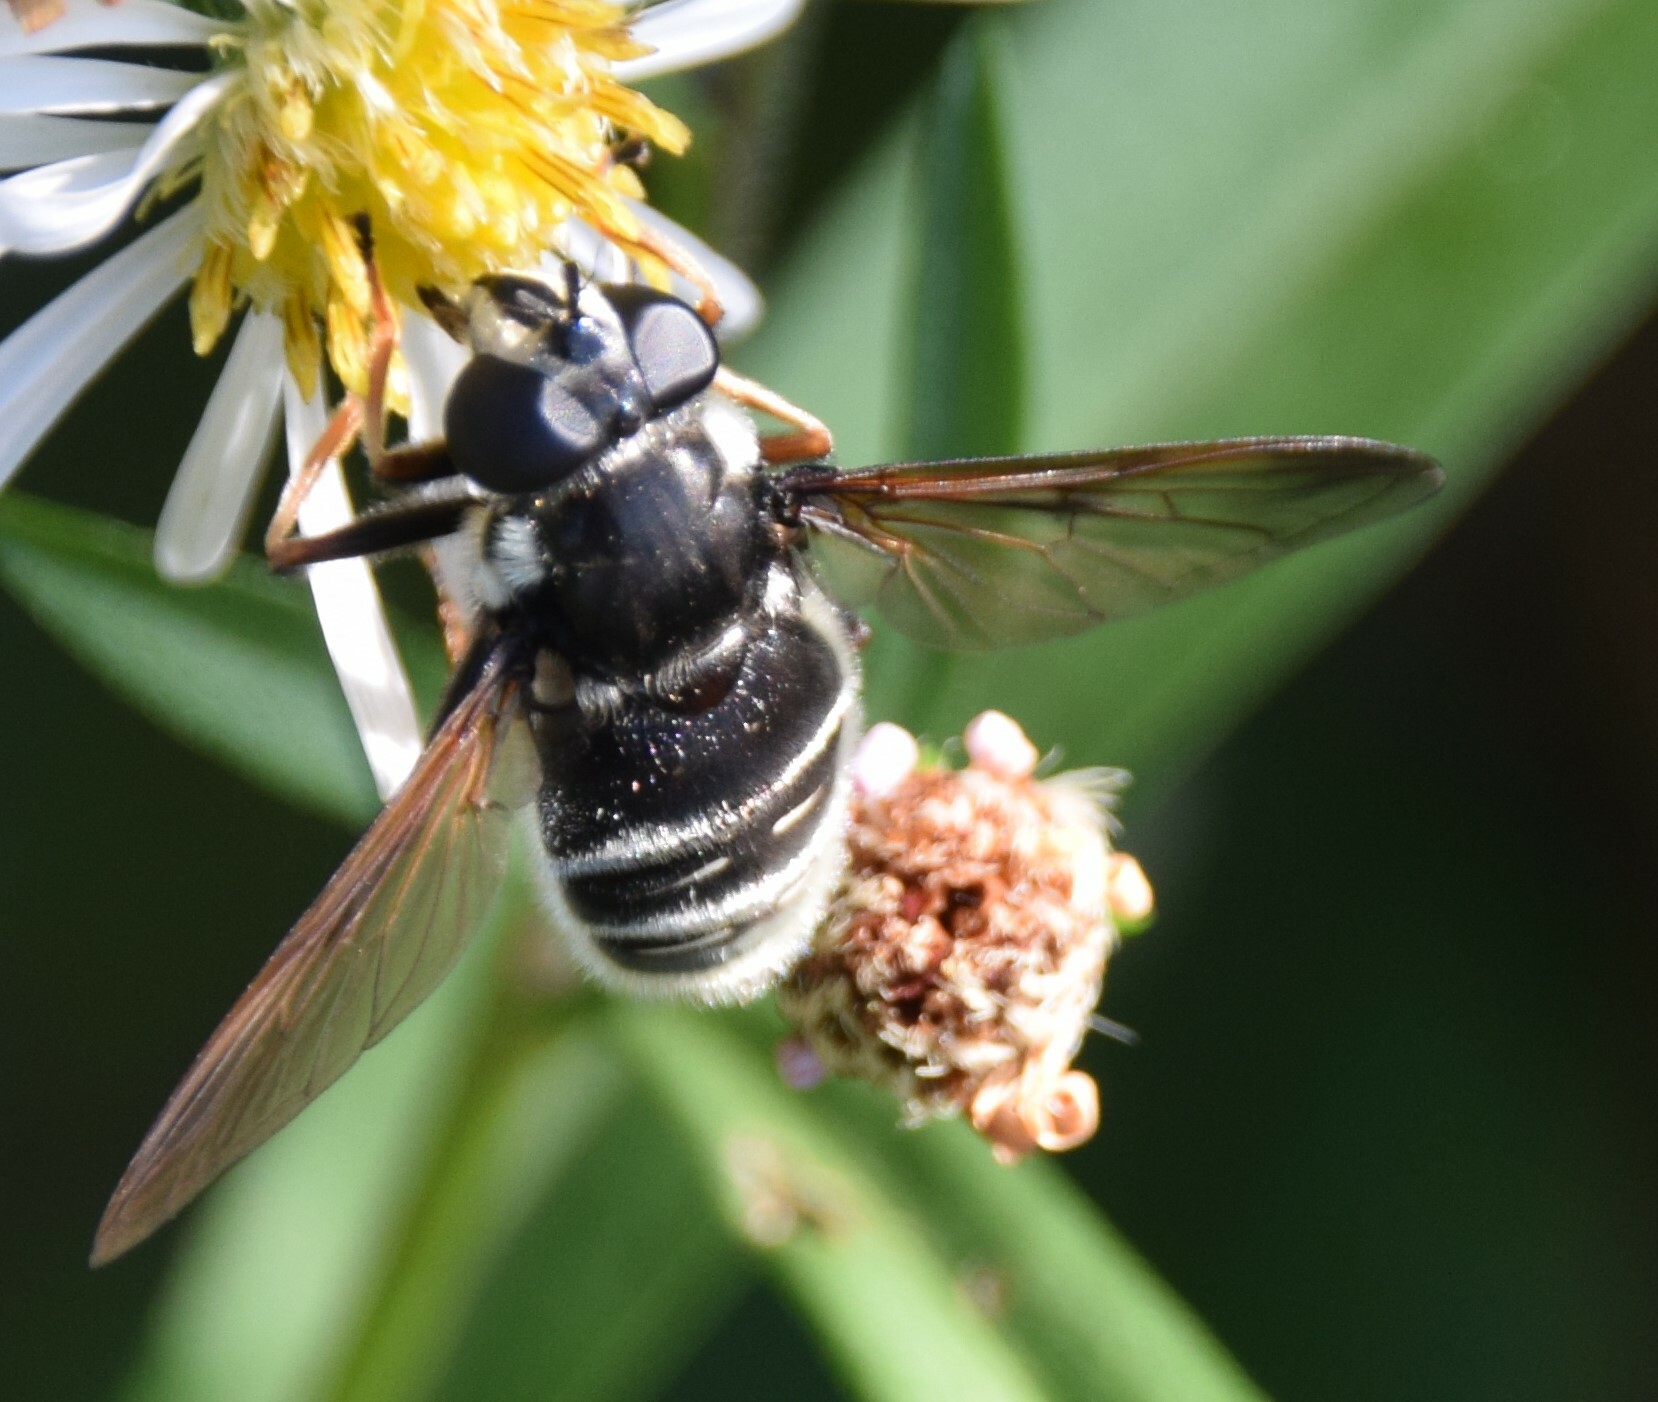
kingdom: Animalia
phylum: Arthropoda
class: Insecta
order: Diptera
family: Syrphidae
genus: Sericomyia
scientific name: Sericomyia militaris
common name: Narrow-banded pond fly
